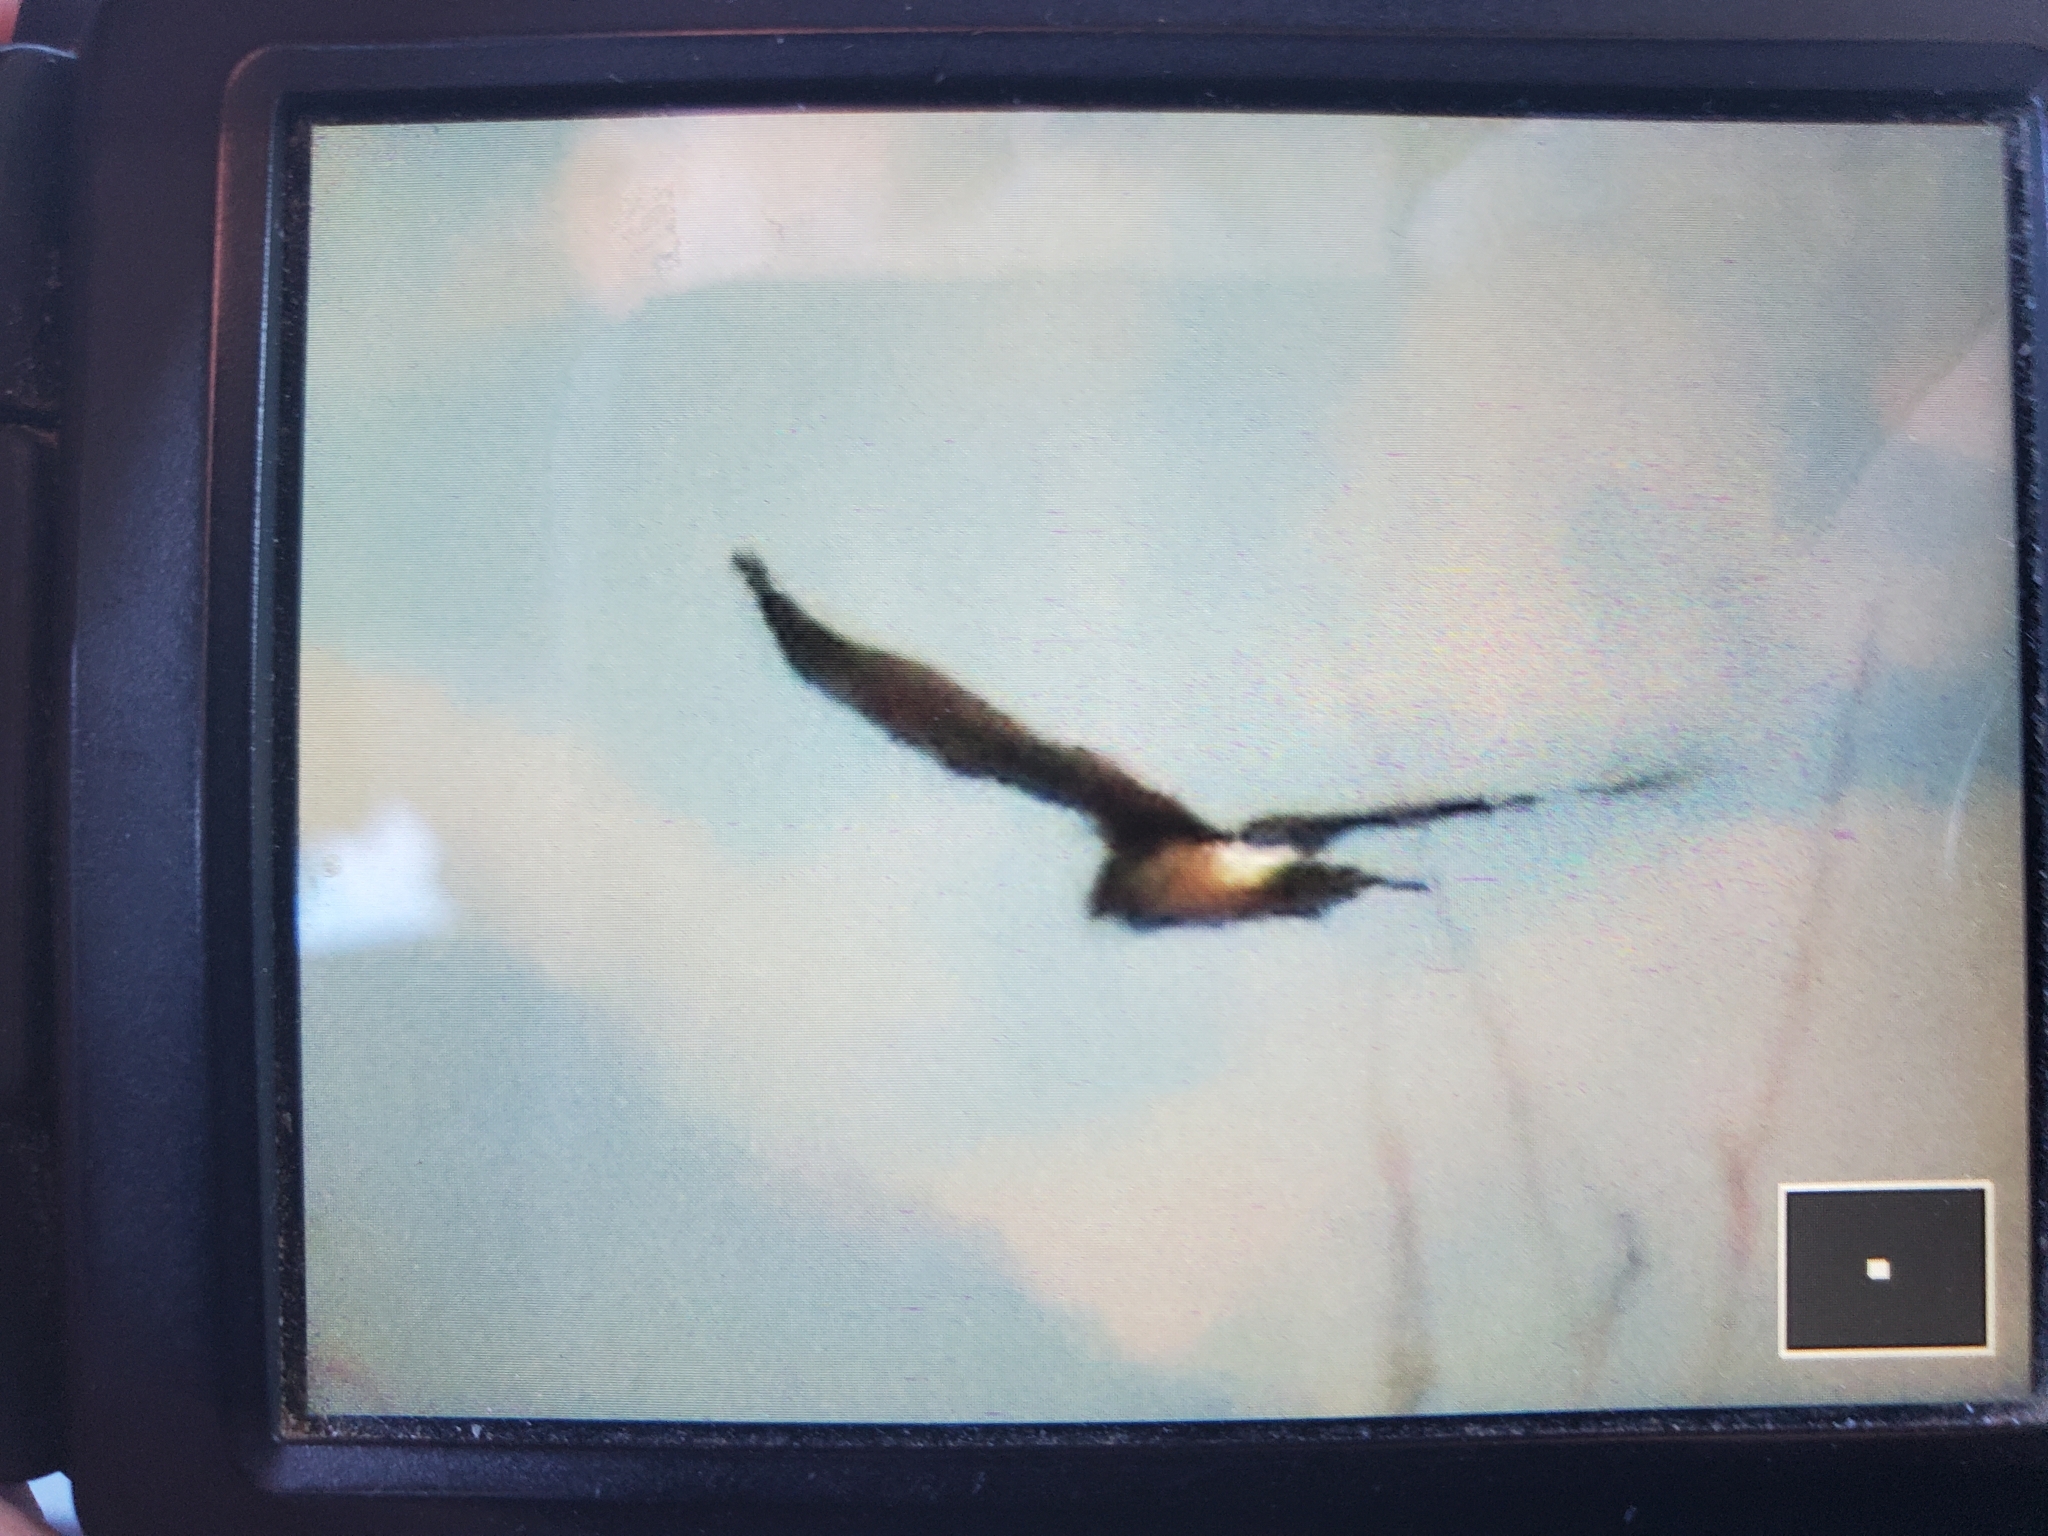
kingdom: Animalia
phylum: Chordata
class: Aves
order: Accipitriformes
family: Accipitridae
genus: Circus
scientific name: Circus cyaneus
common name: Hen harrier
